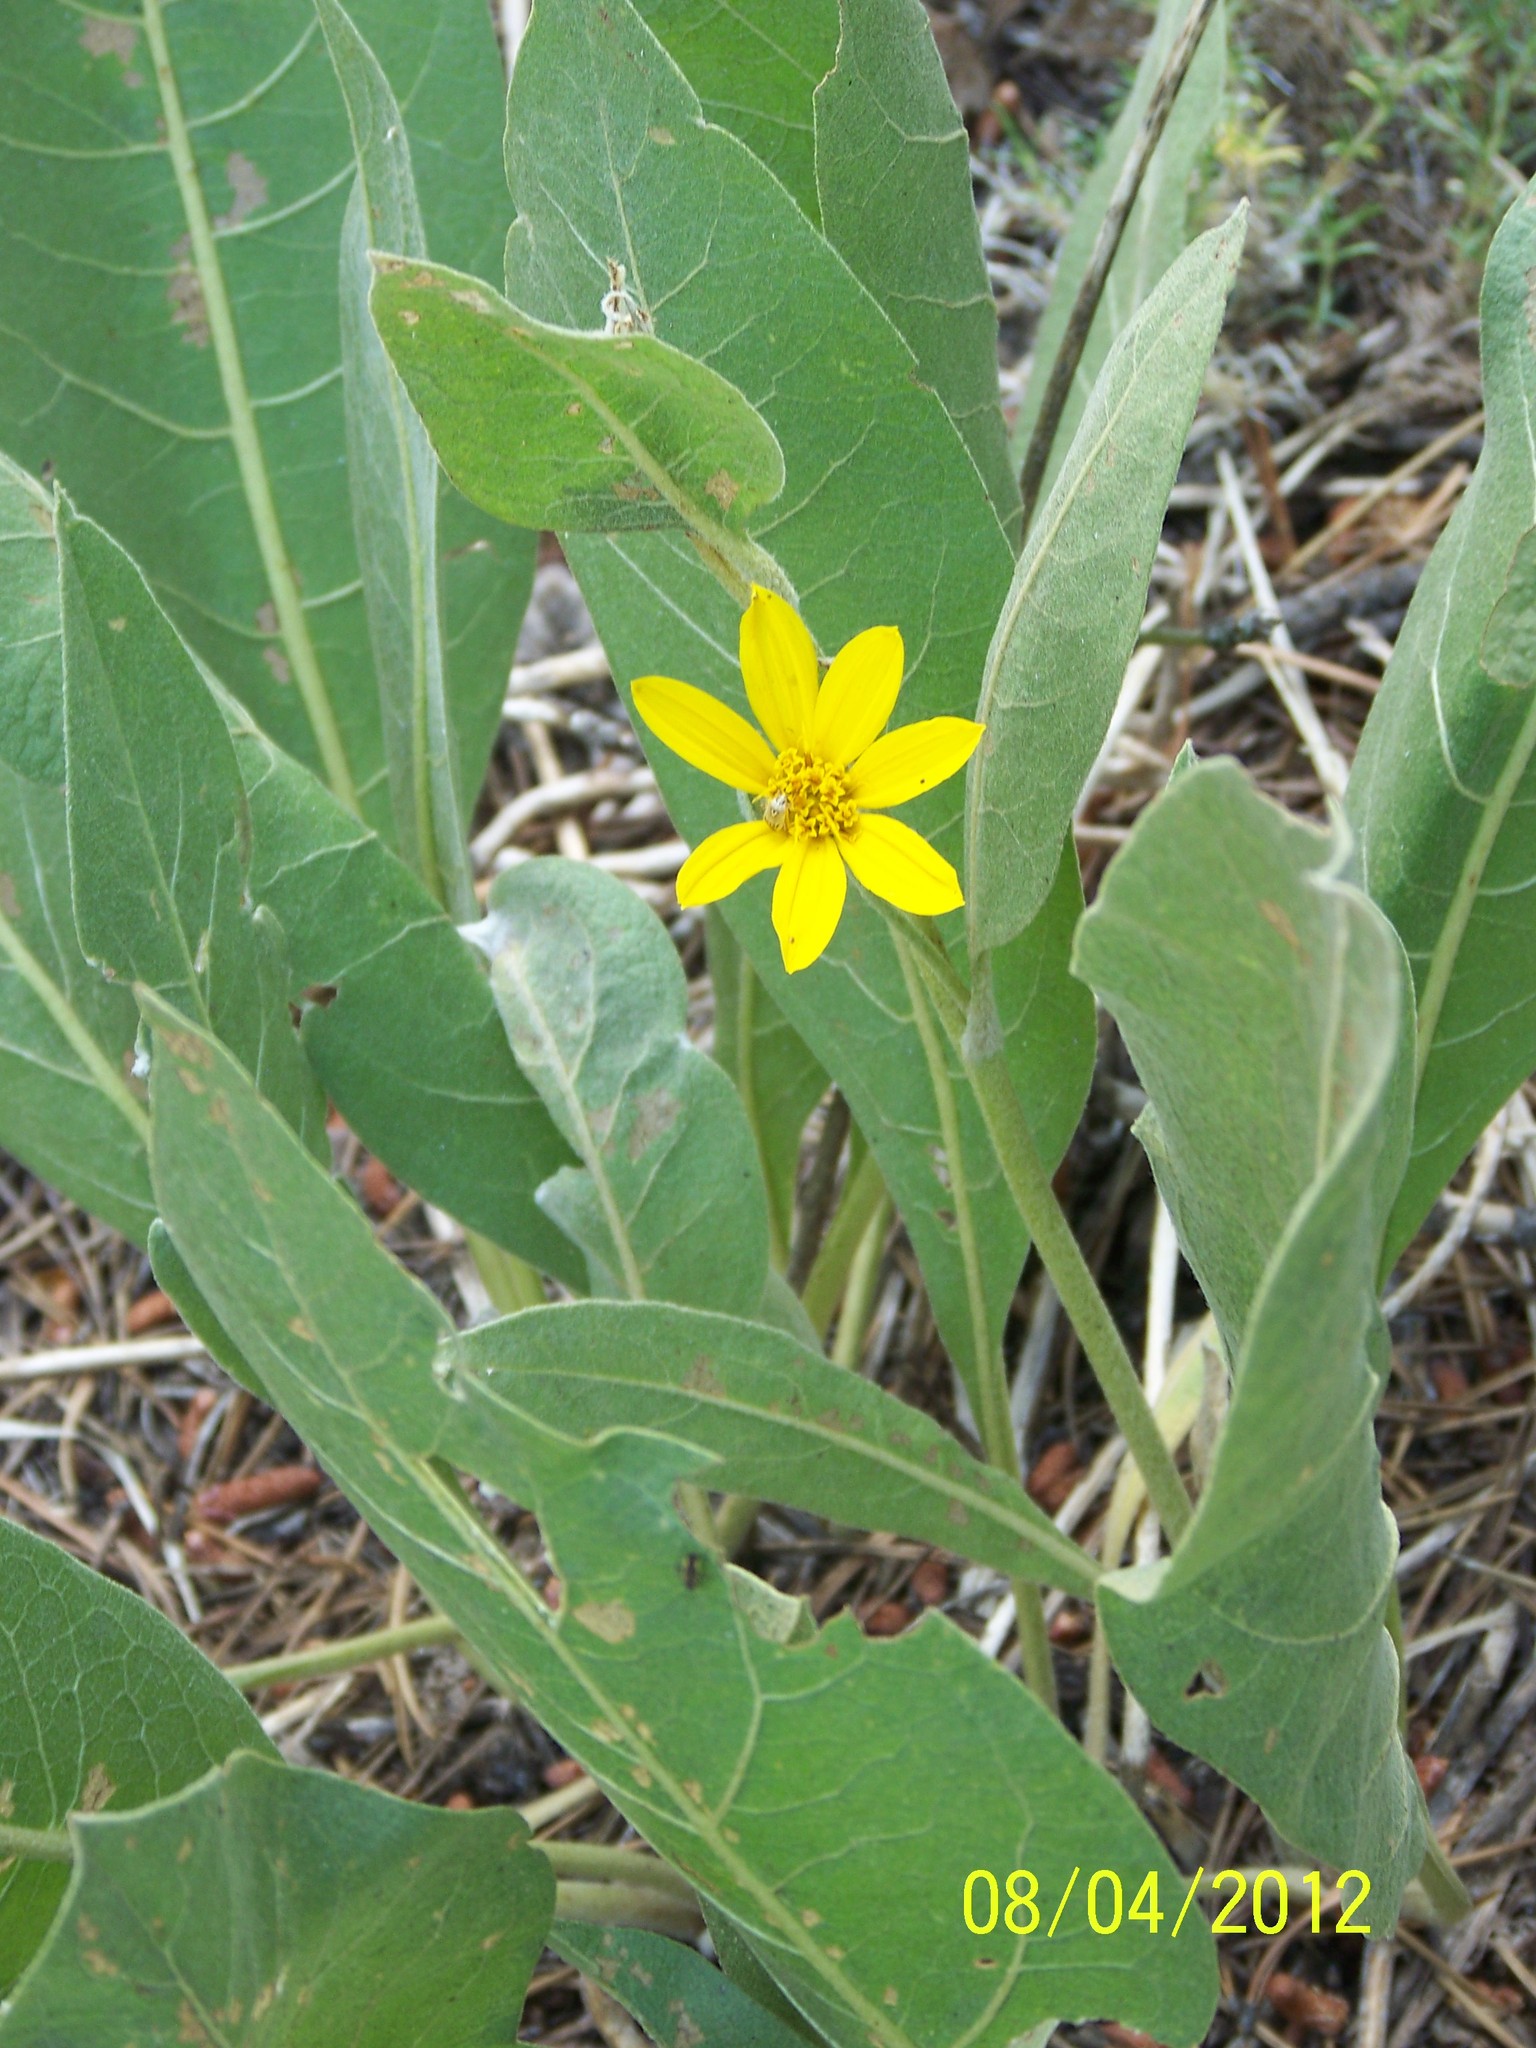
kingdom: Plantae
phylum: Tracheophyta
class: Magnoliopsida
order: Asterales
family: Asteraceae
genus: Wyethia
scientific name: Wyethia mollis
